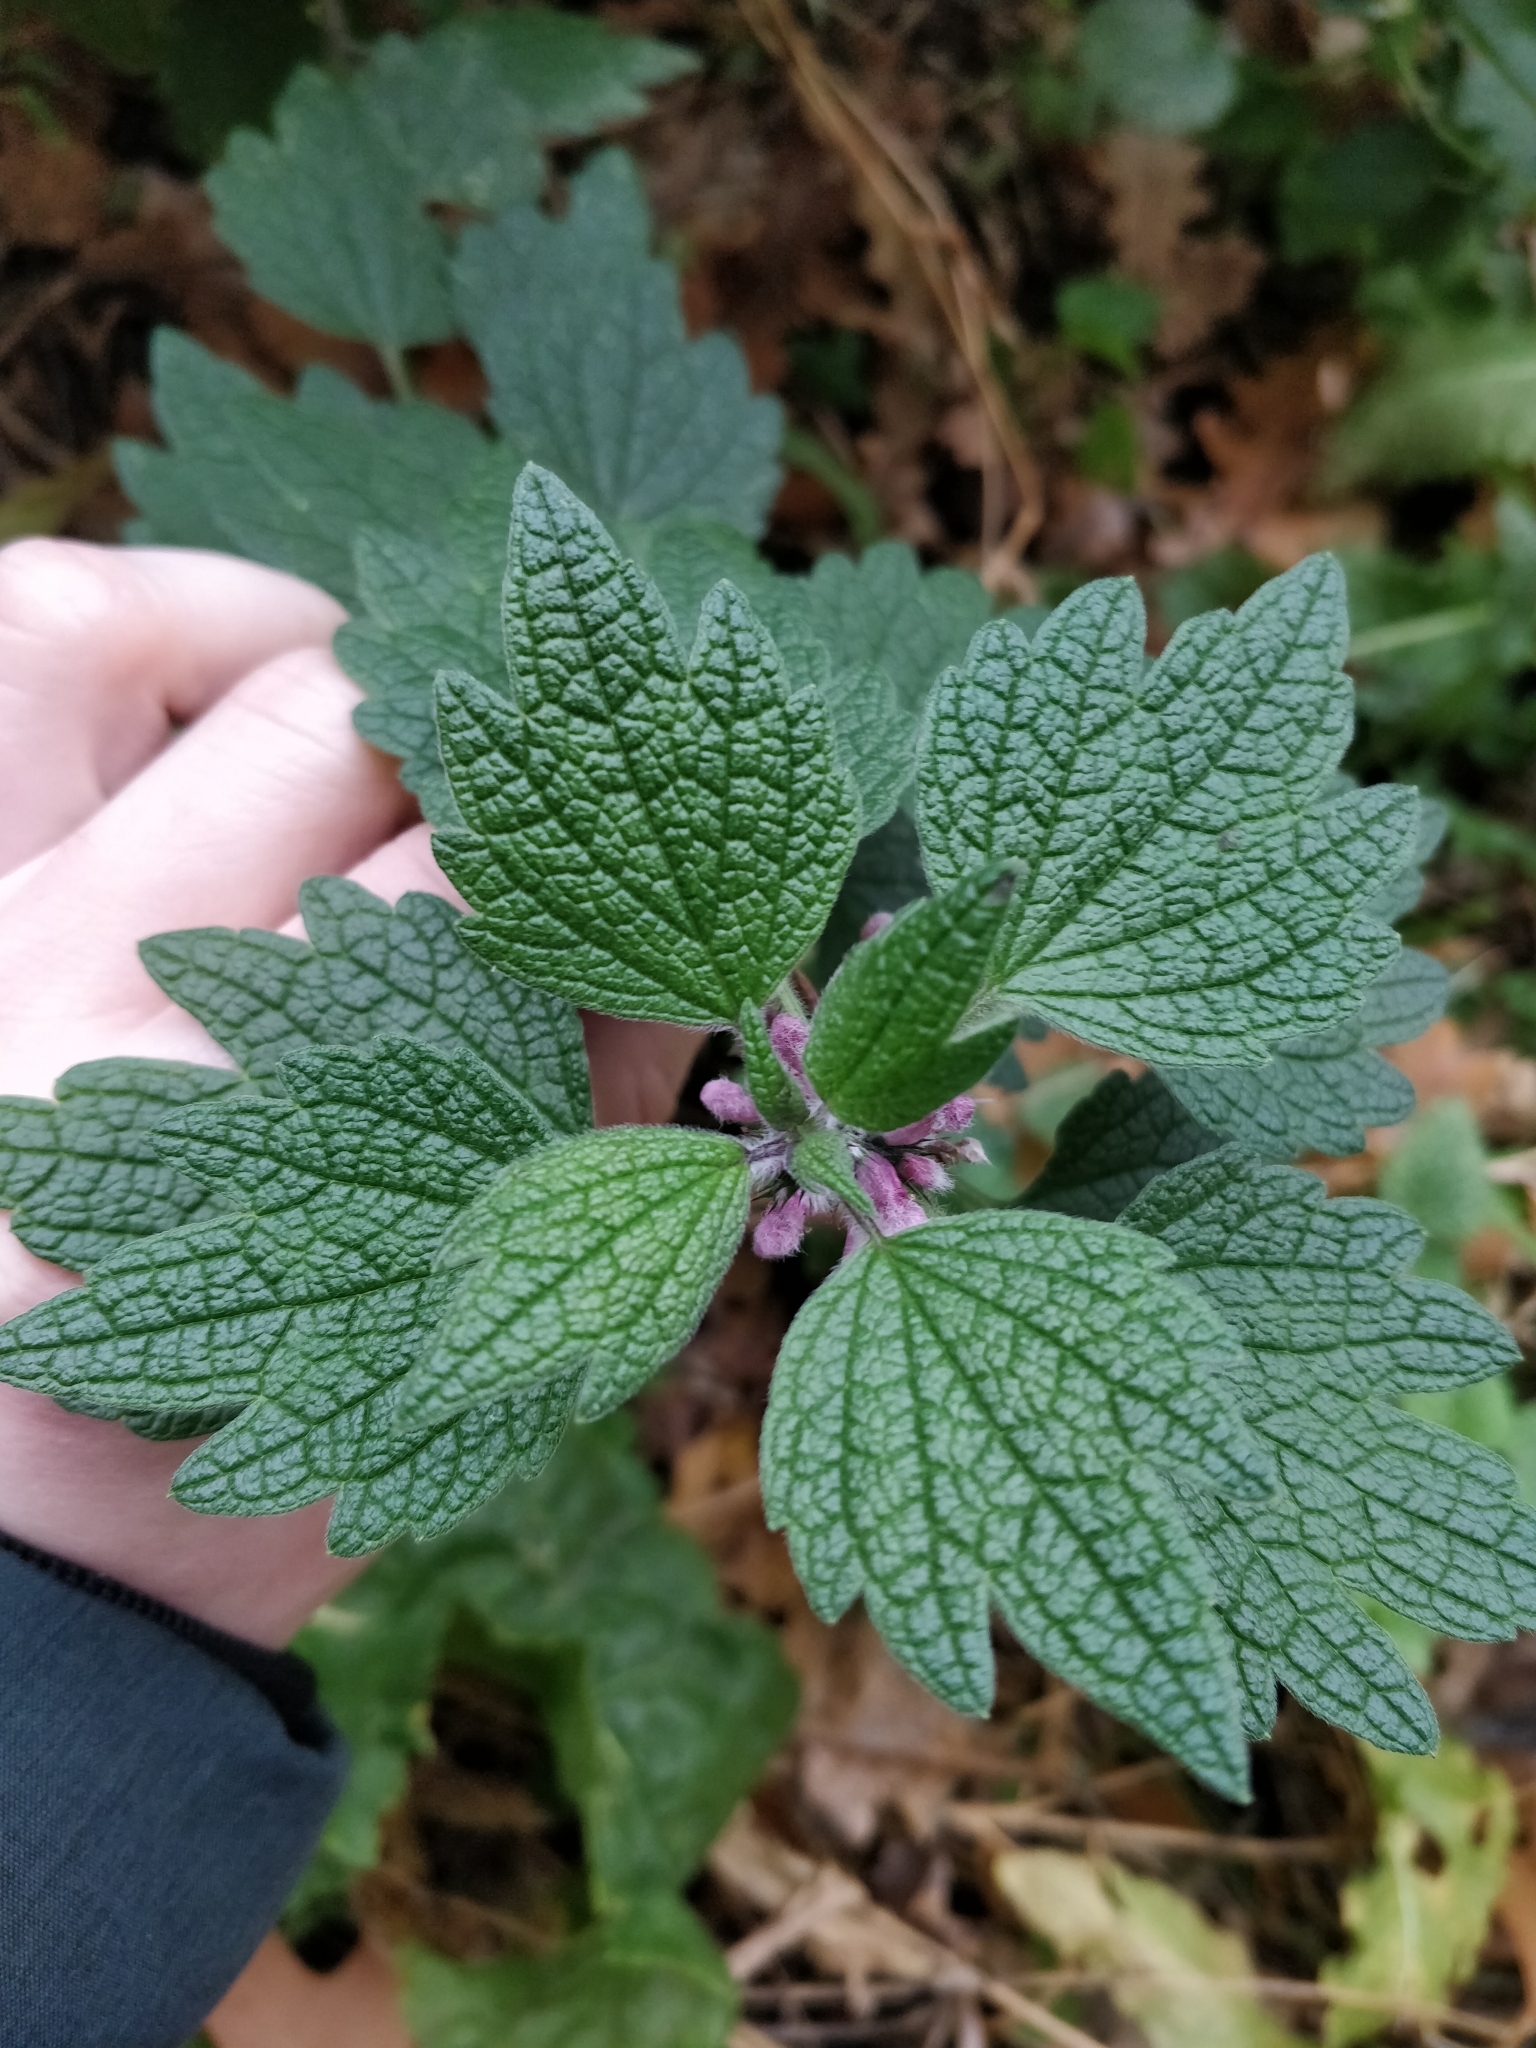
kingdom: Plantae
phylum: Tracheophyta
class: Magnoliopsida
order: Lamiales
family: Lamiaceae
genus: Leonurus
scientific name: Leonurus quinquelobatus
